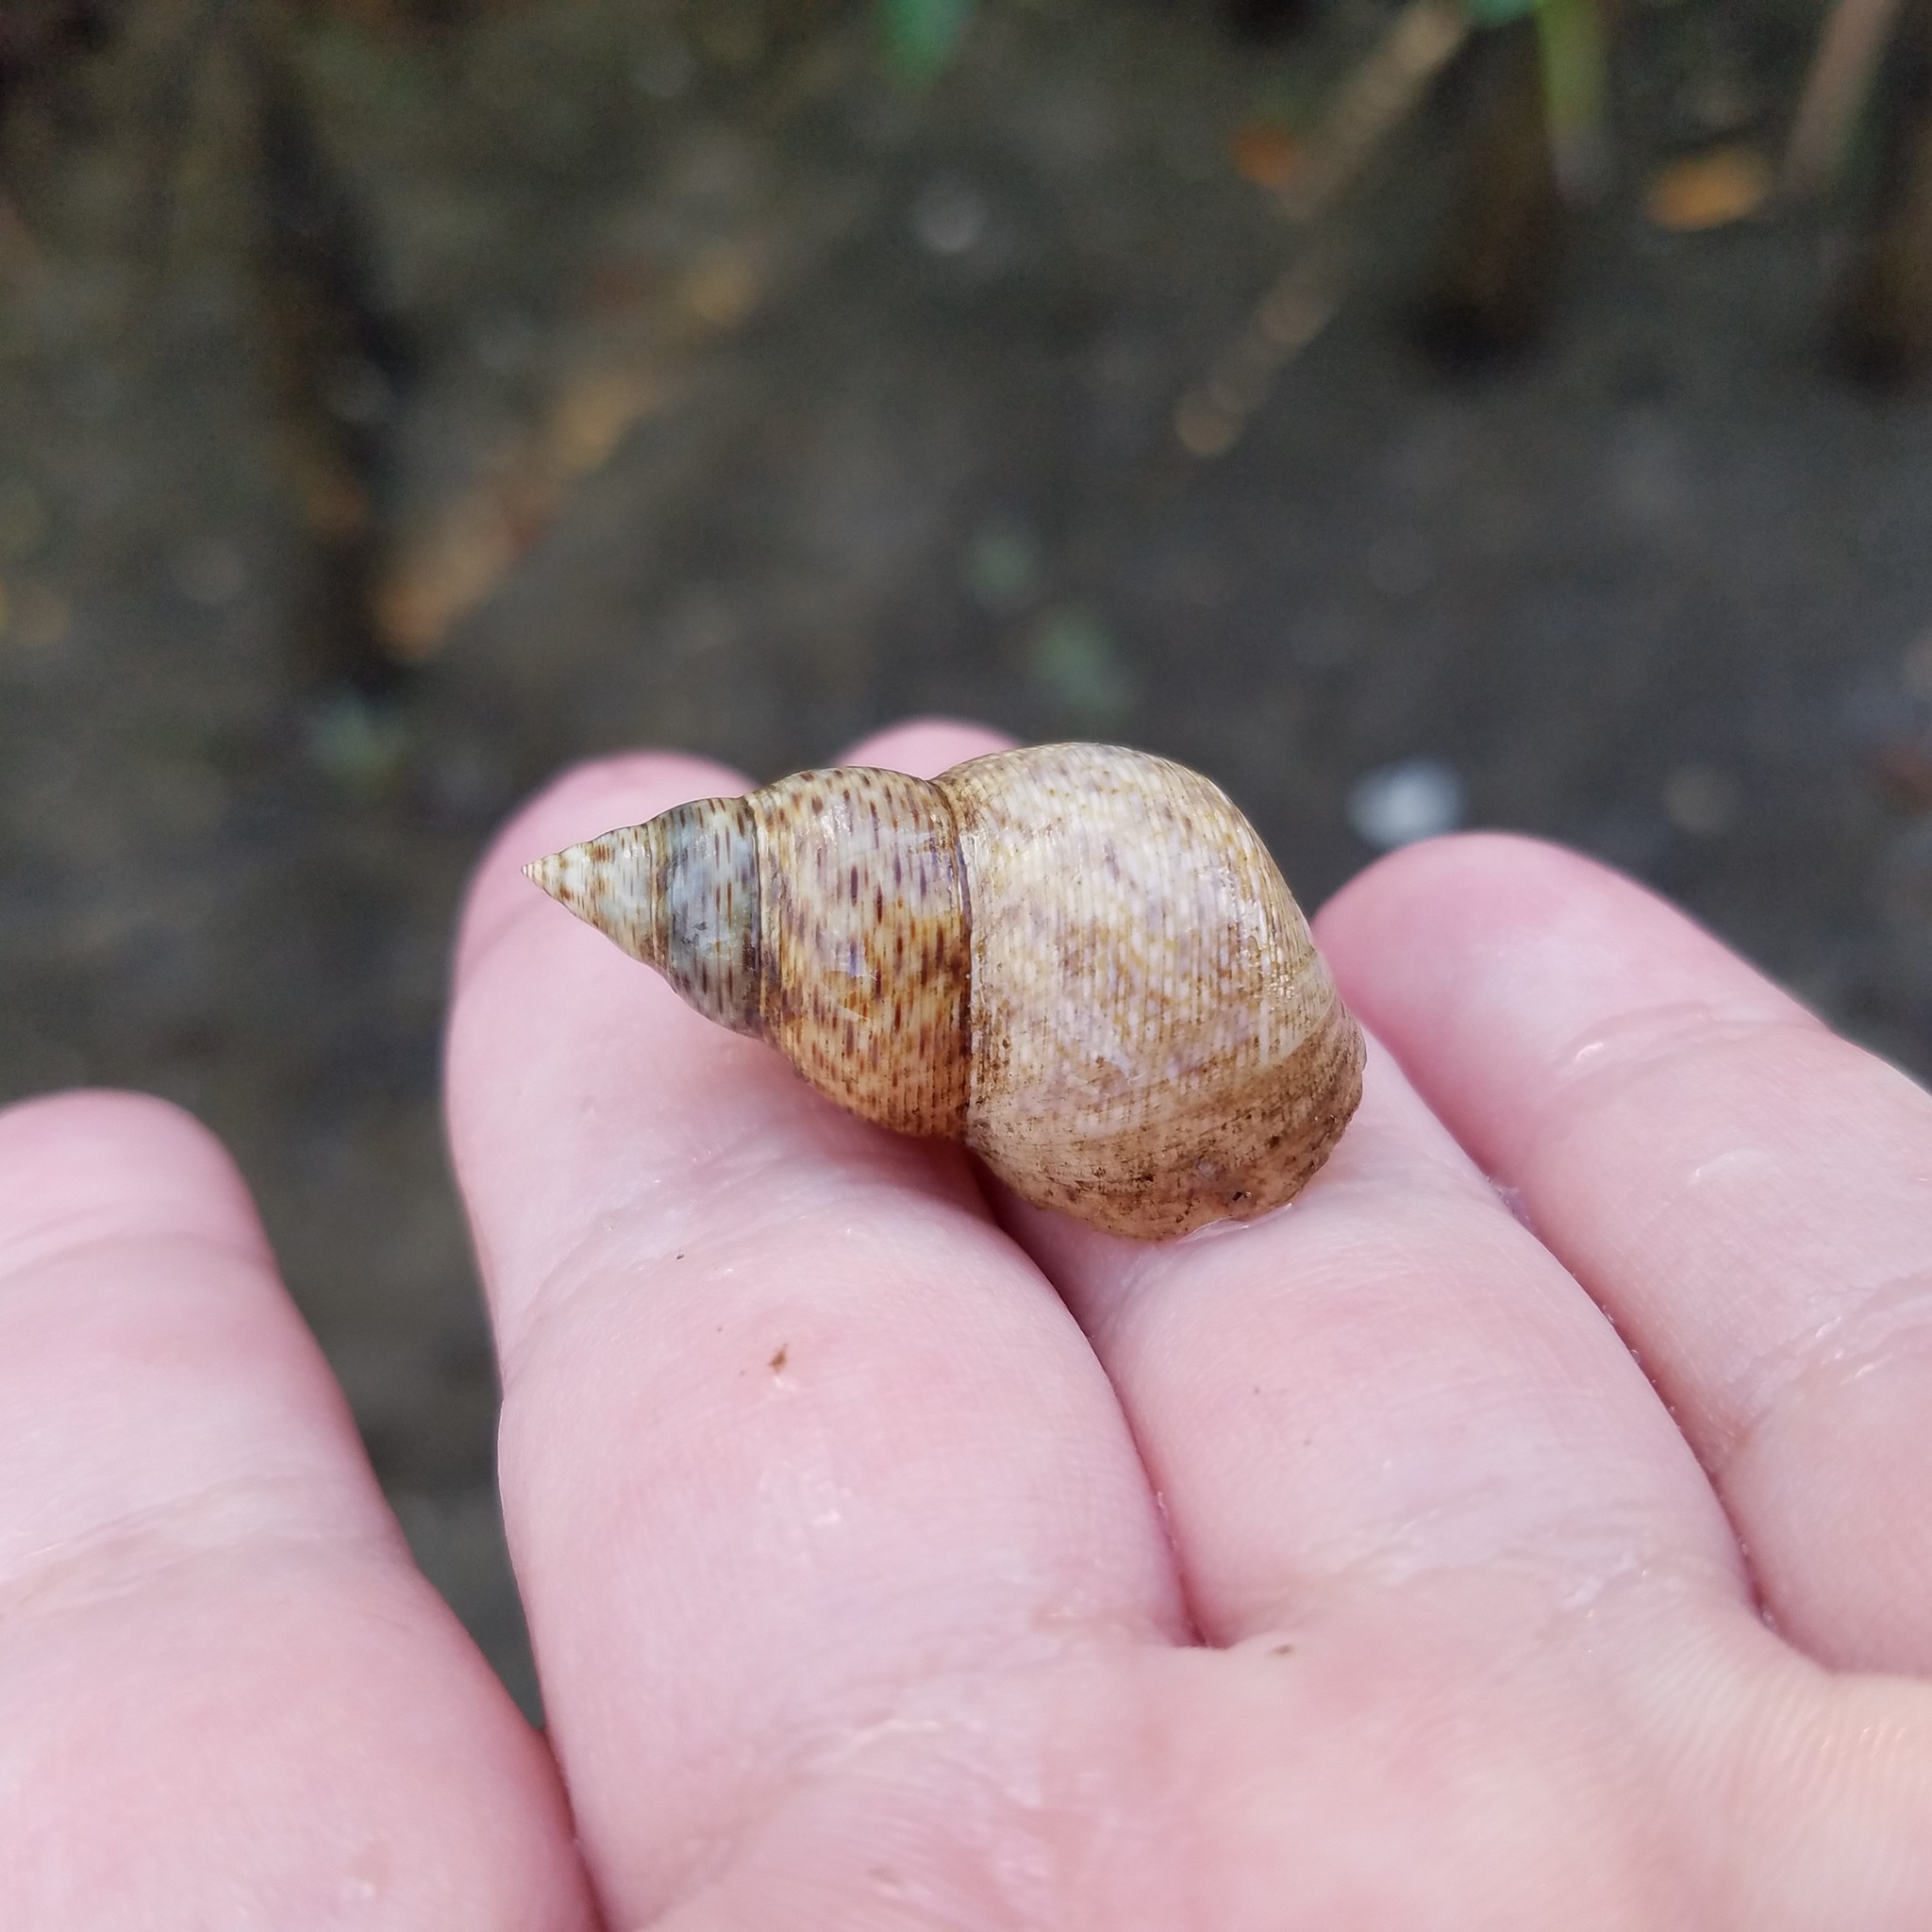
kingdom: Animalia
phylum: Mollusca
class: Gastropoda
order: Littorinimorpha
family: Littorinidae
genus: Littoraria
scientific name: Littoraria angulifera
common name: Mangrove periwinkle
